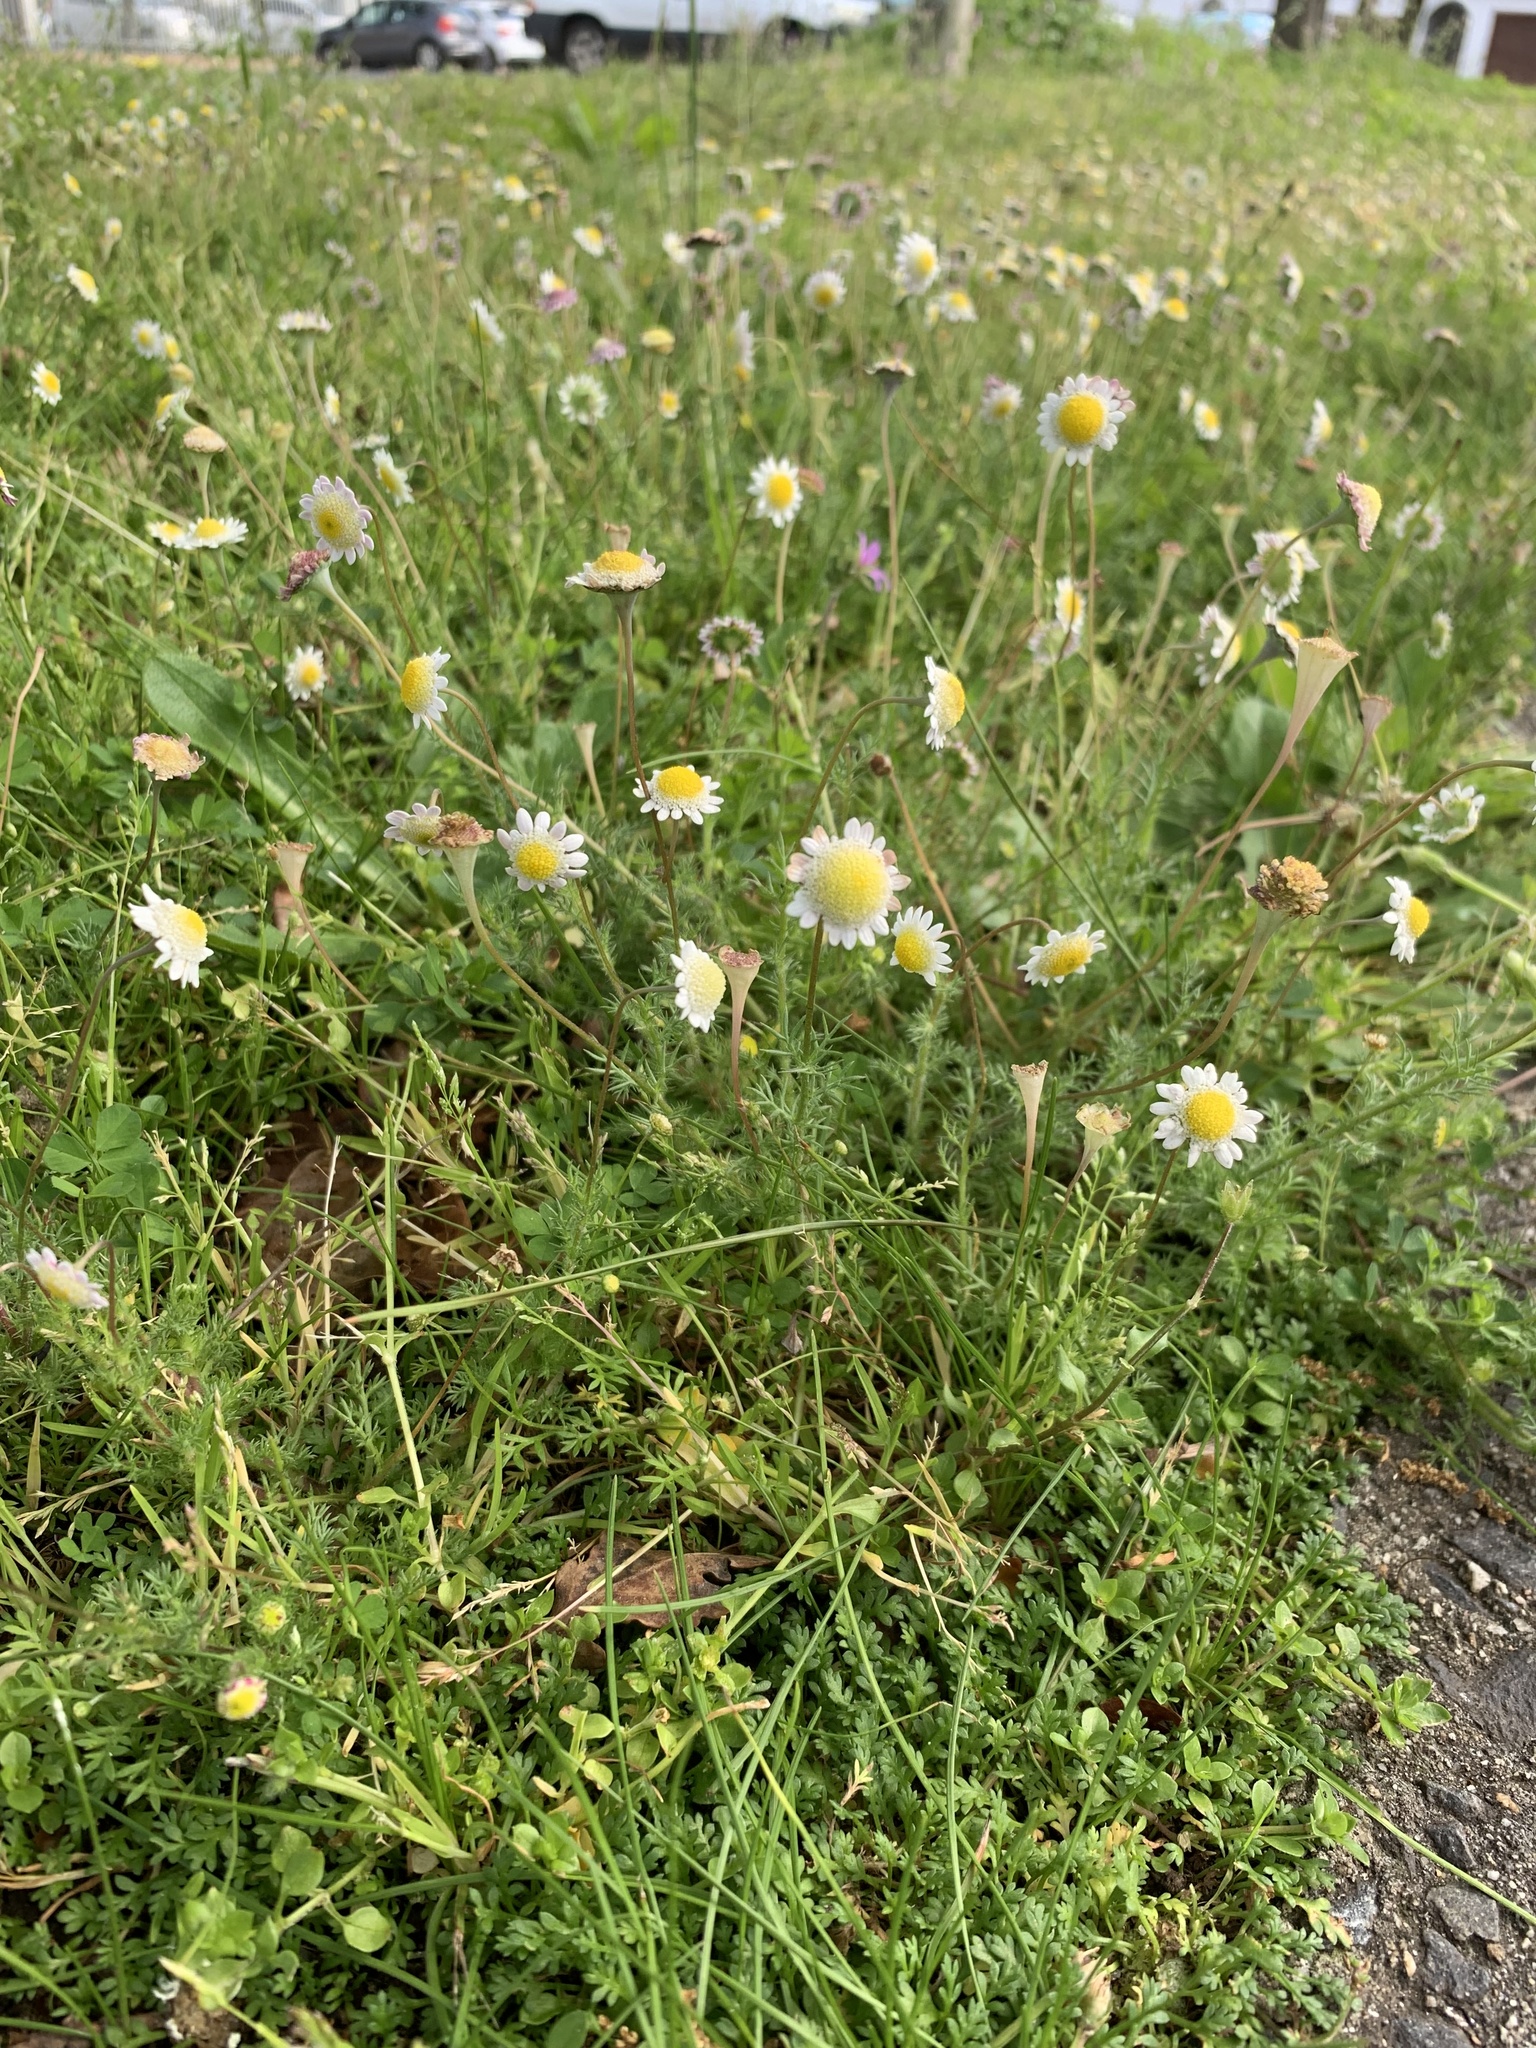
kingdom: Plantae
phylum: Tracheophyta
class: Magnoliopsida
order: Asterales
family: Asteraceae
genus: Cotula
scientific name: Cotula turbinata
